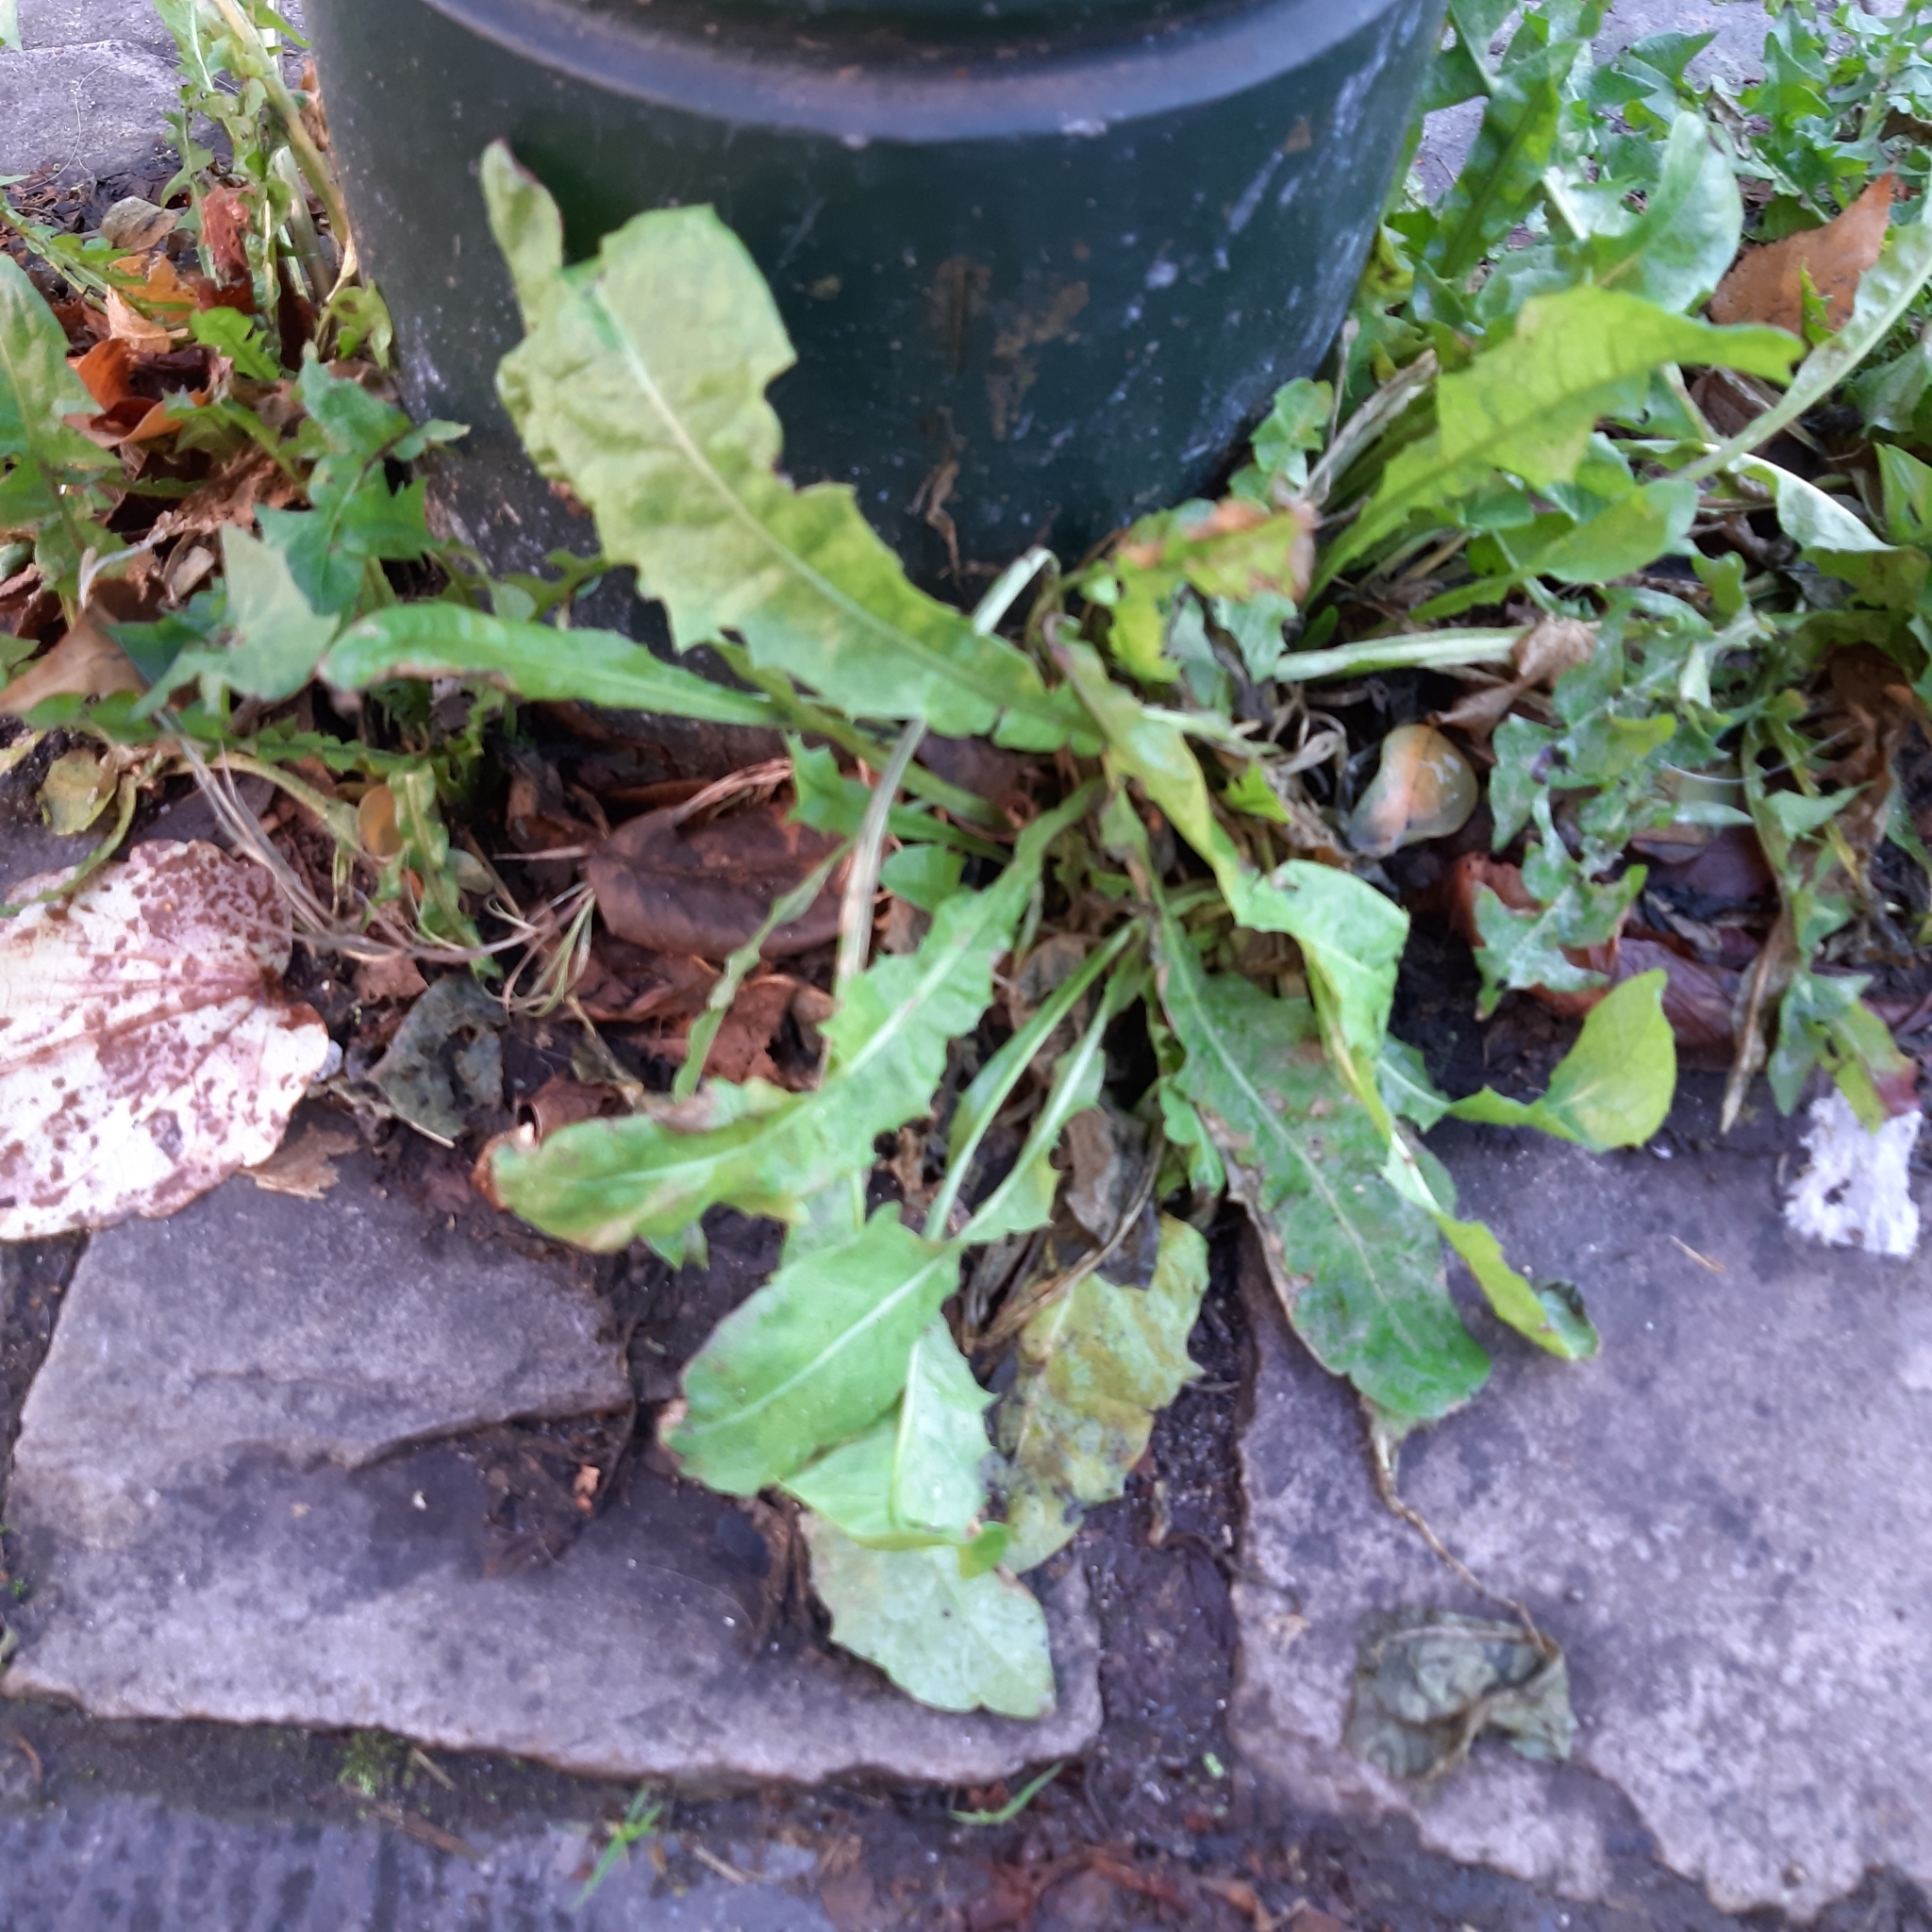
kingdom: Plantae
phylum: Tracheophyta
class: Magnoliopsida
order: Asterales
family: Asteraceae
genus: Taraxacum
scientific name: Taraxacum officinale
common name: Common dandelion
